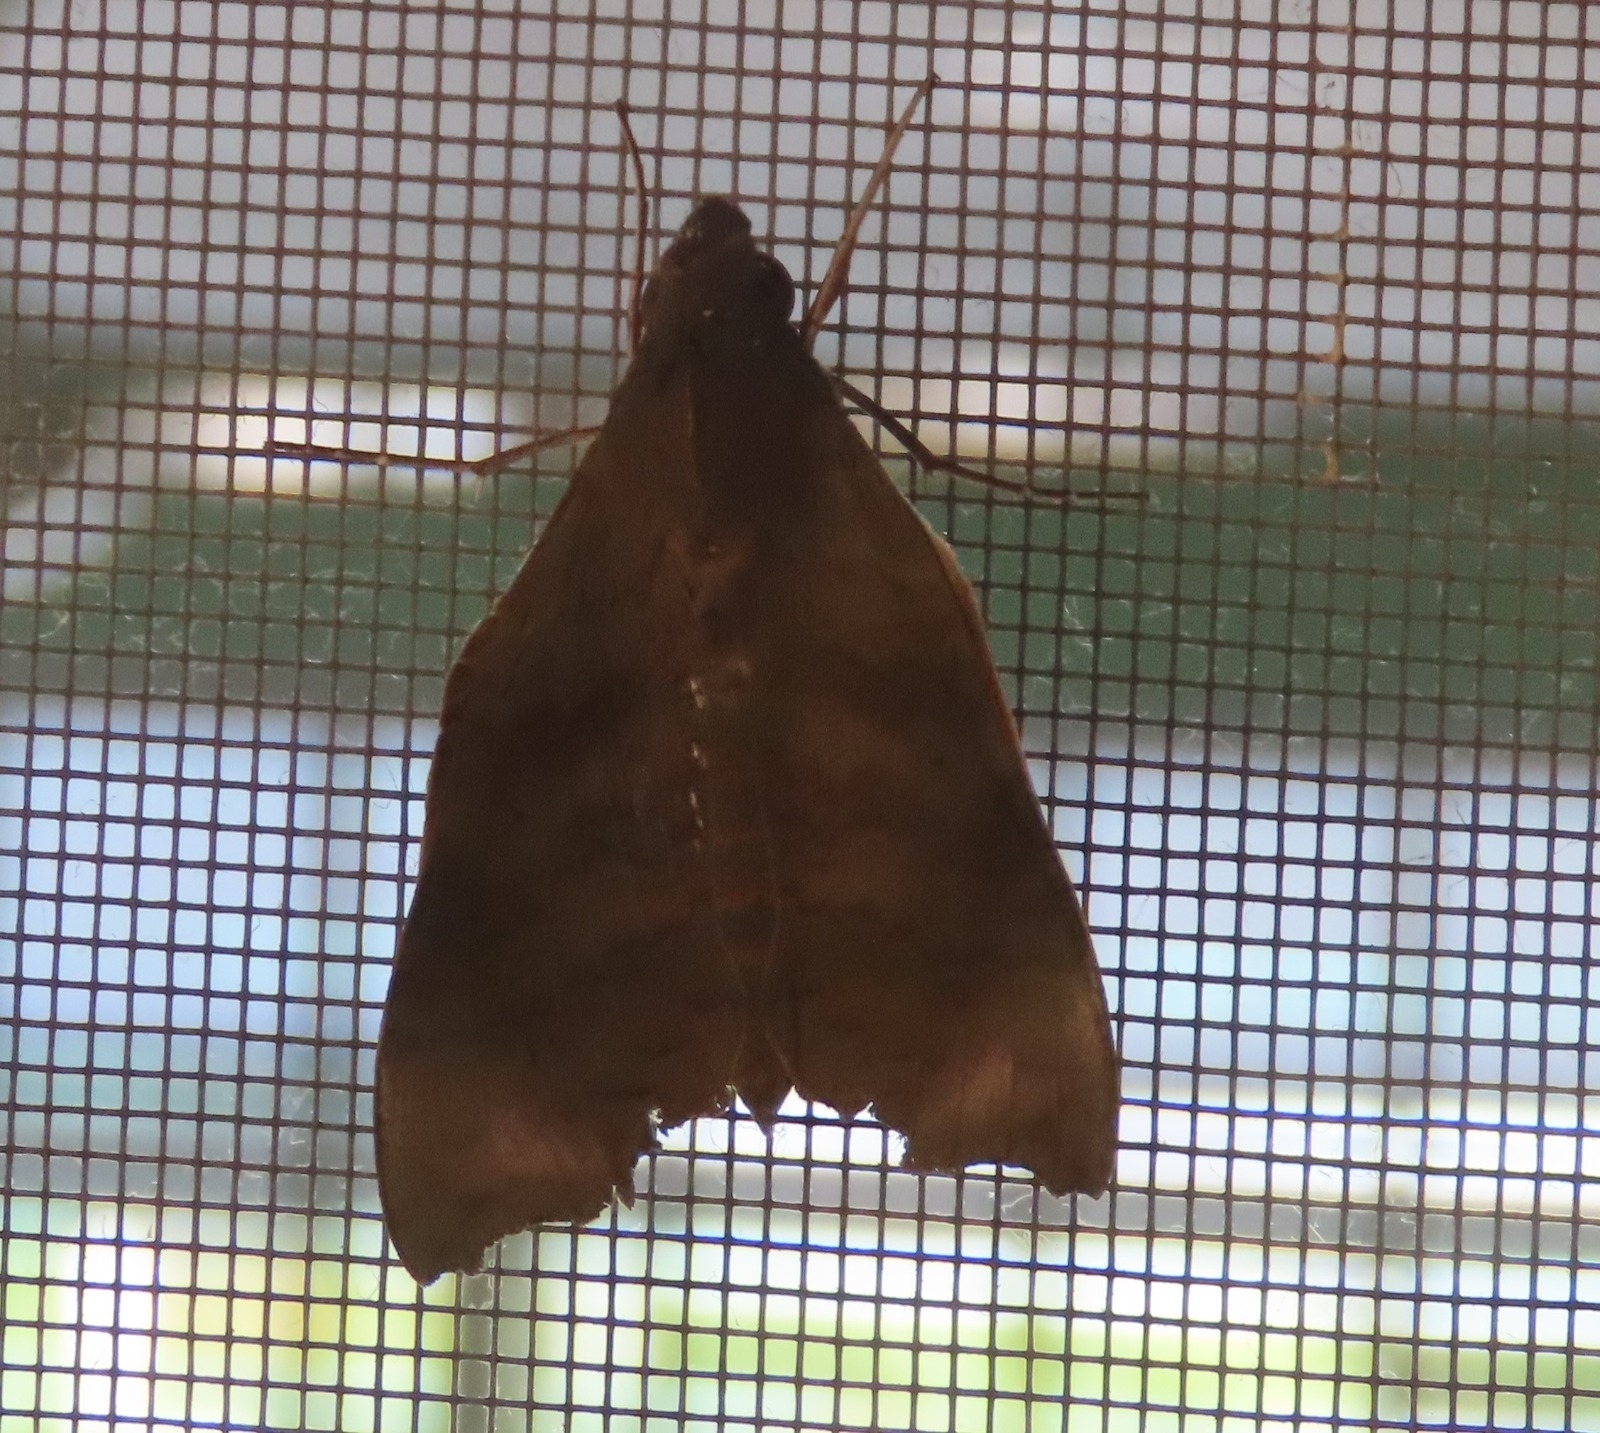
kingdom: Animalia
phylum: Arthropoda
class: Insecta
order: Lepidoptera
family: Sphingidae
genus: Aleuron
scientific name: Aleuron chloroptera
